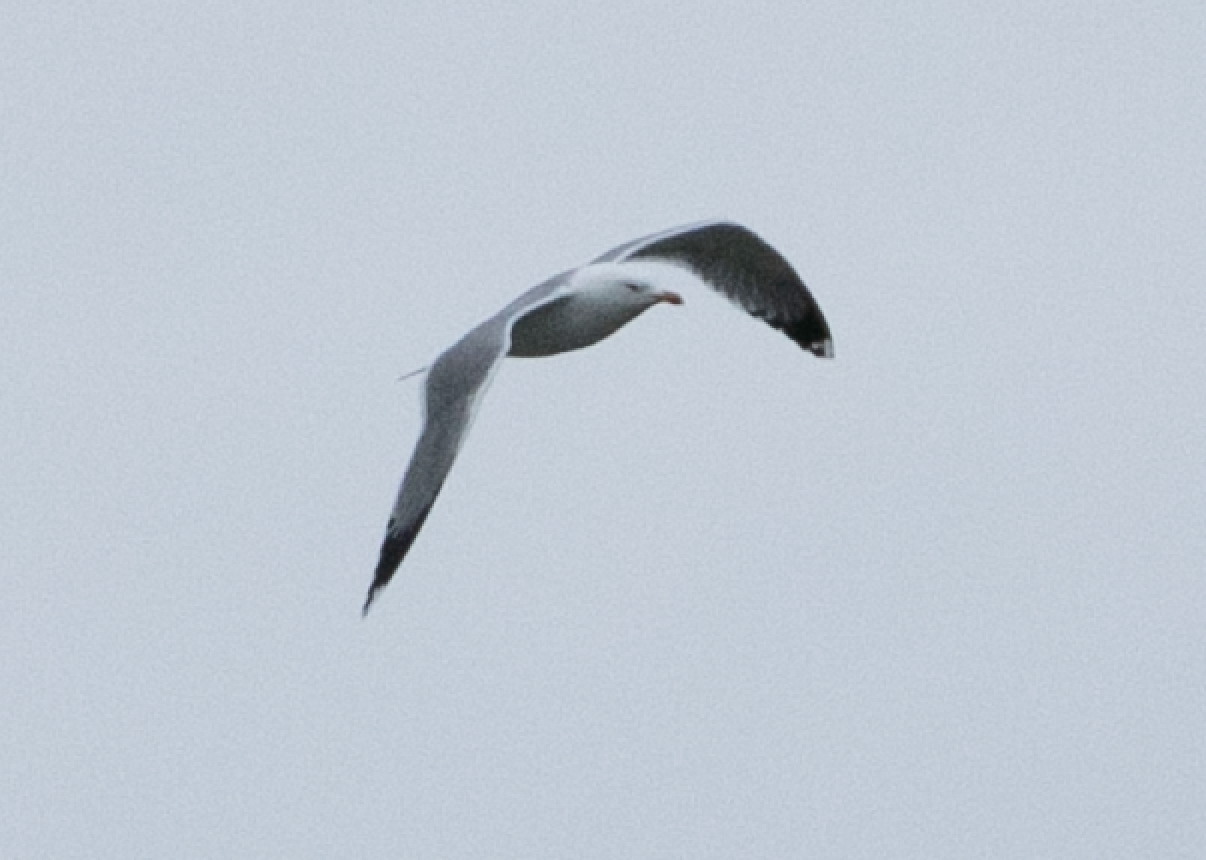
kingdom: Animalia
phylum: Chordata
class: Aves
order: Charadriiformes
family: Laridae
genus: Larus
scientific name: Larus michahellis
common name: Yellow-legged gull
